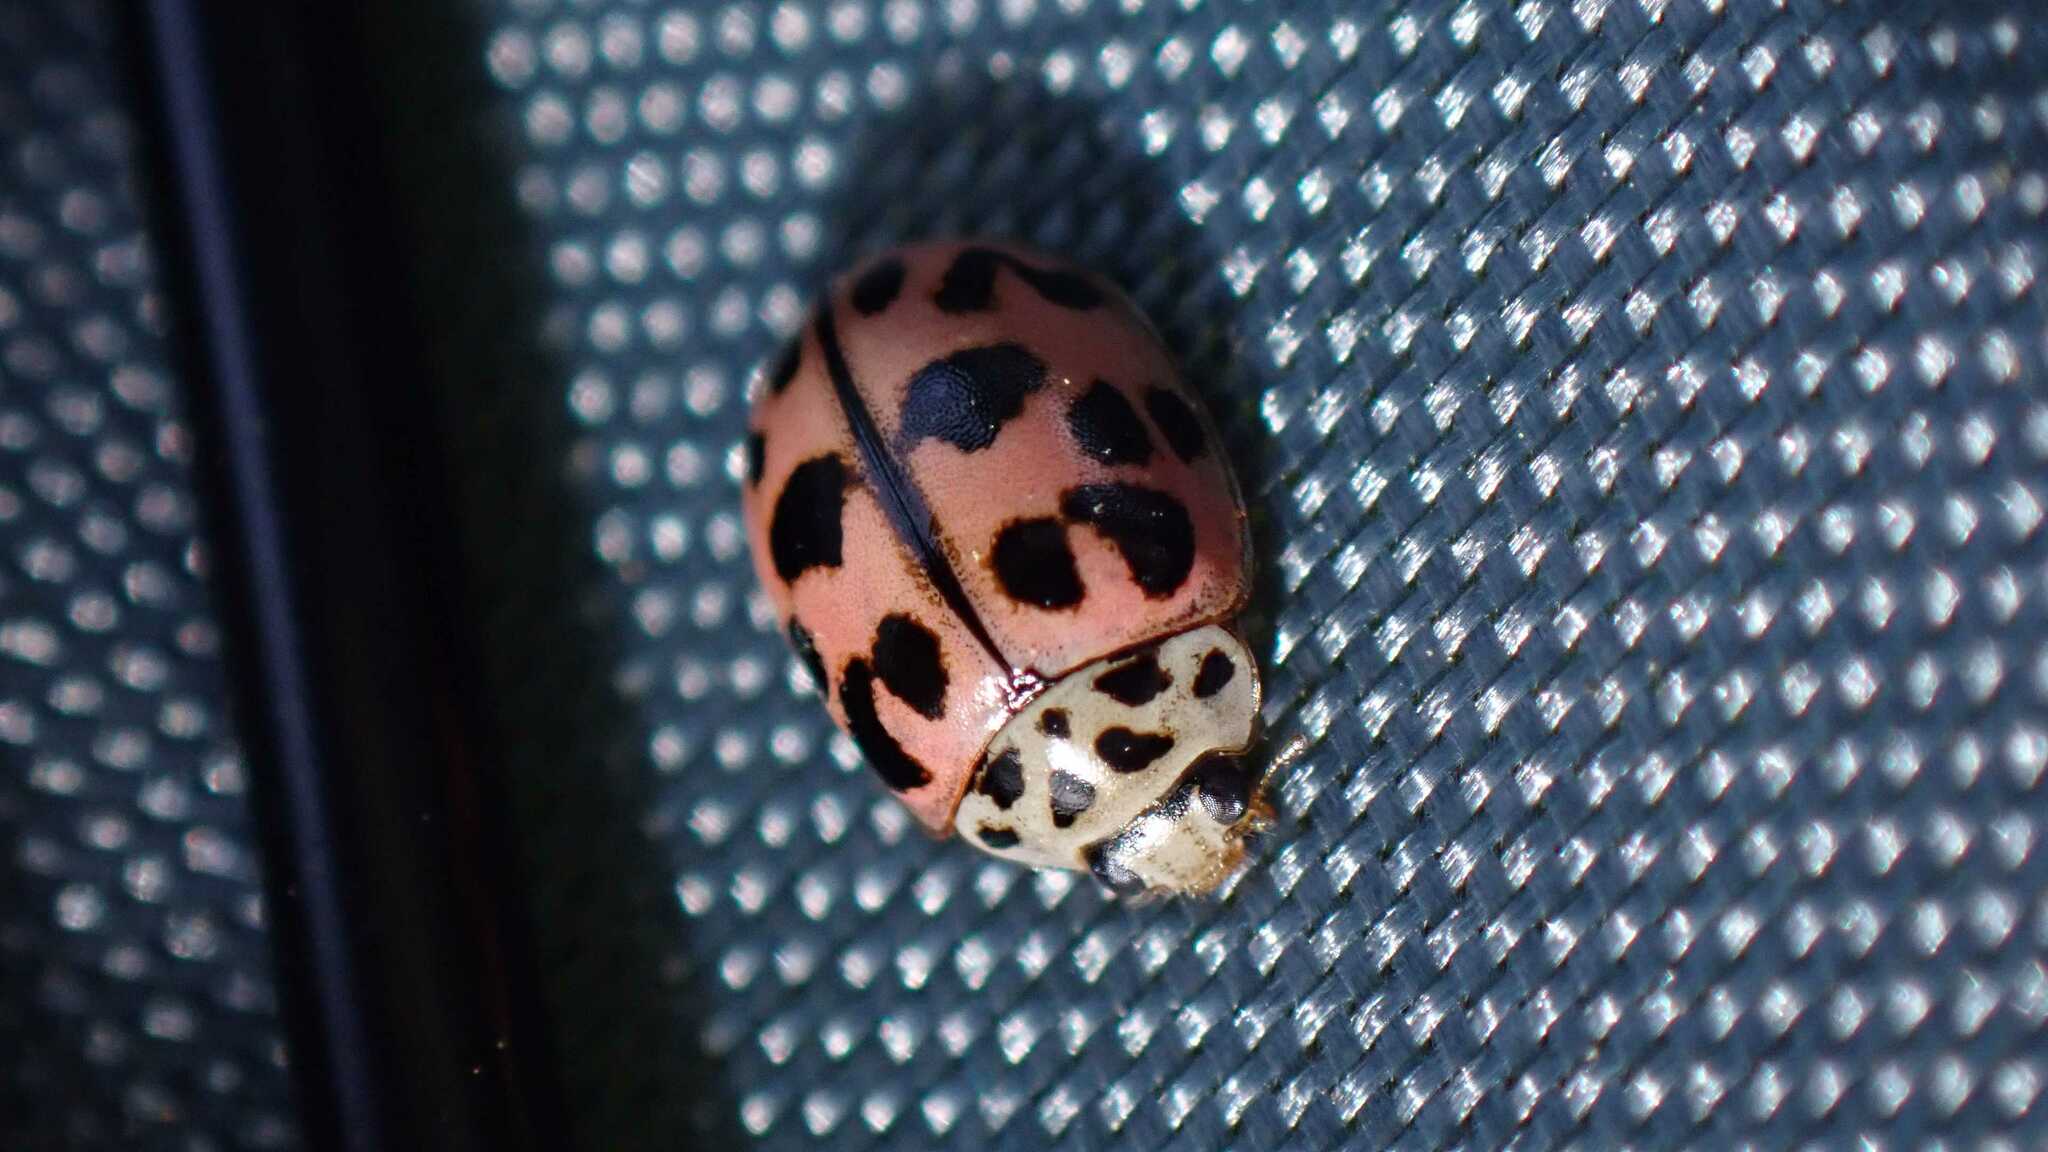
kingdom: Animalia
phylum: Arthropoda
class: Insecta
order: Coleoptera
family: Coccinellidae
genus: Oenopia
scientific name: Oenopia conglobata
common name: Ladybird beetle
